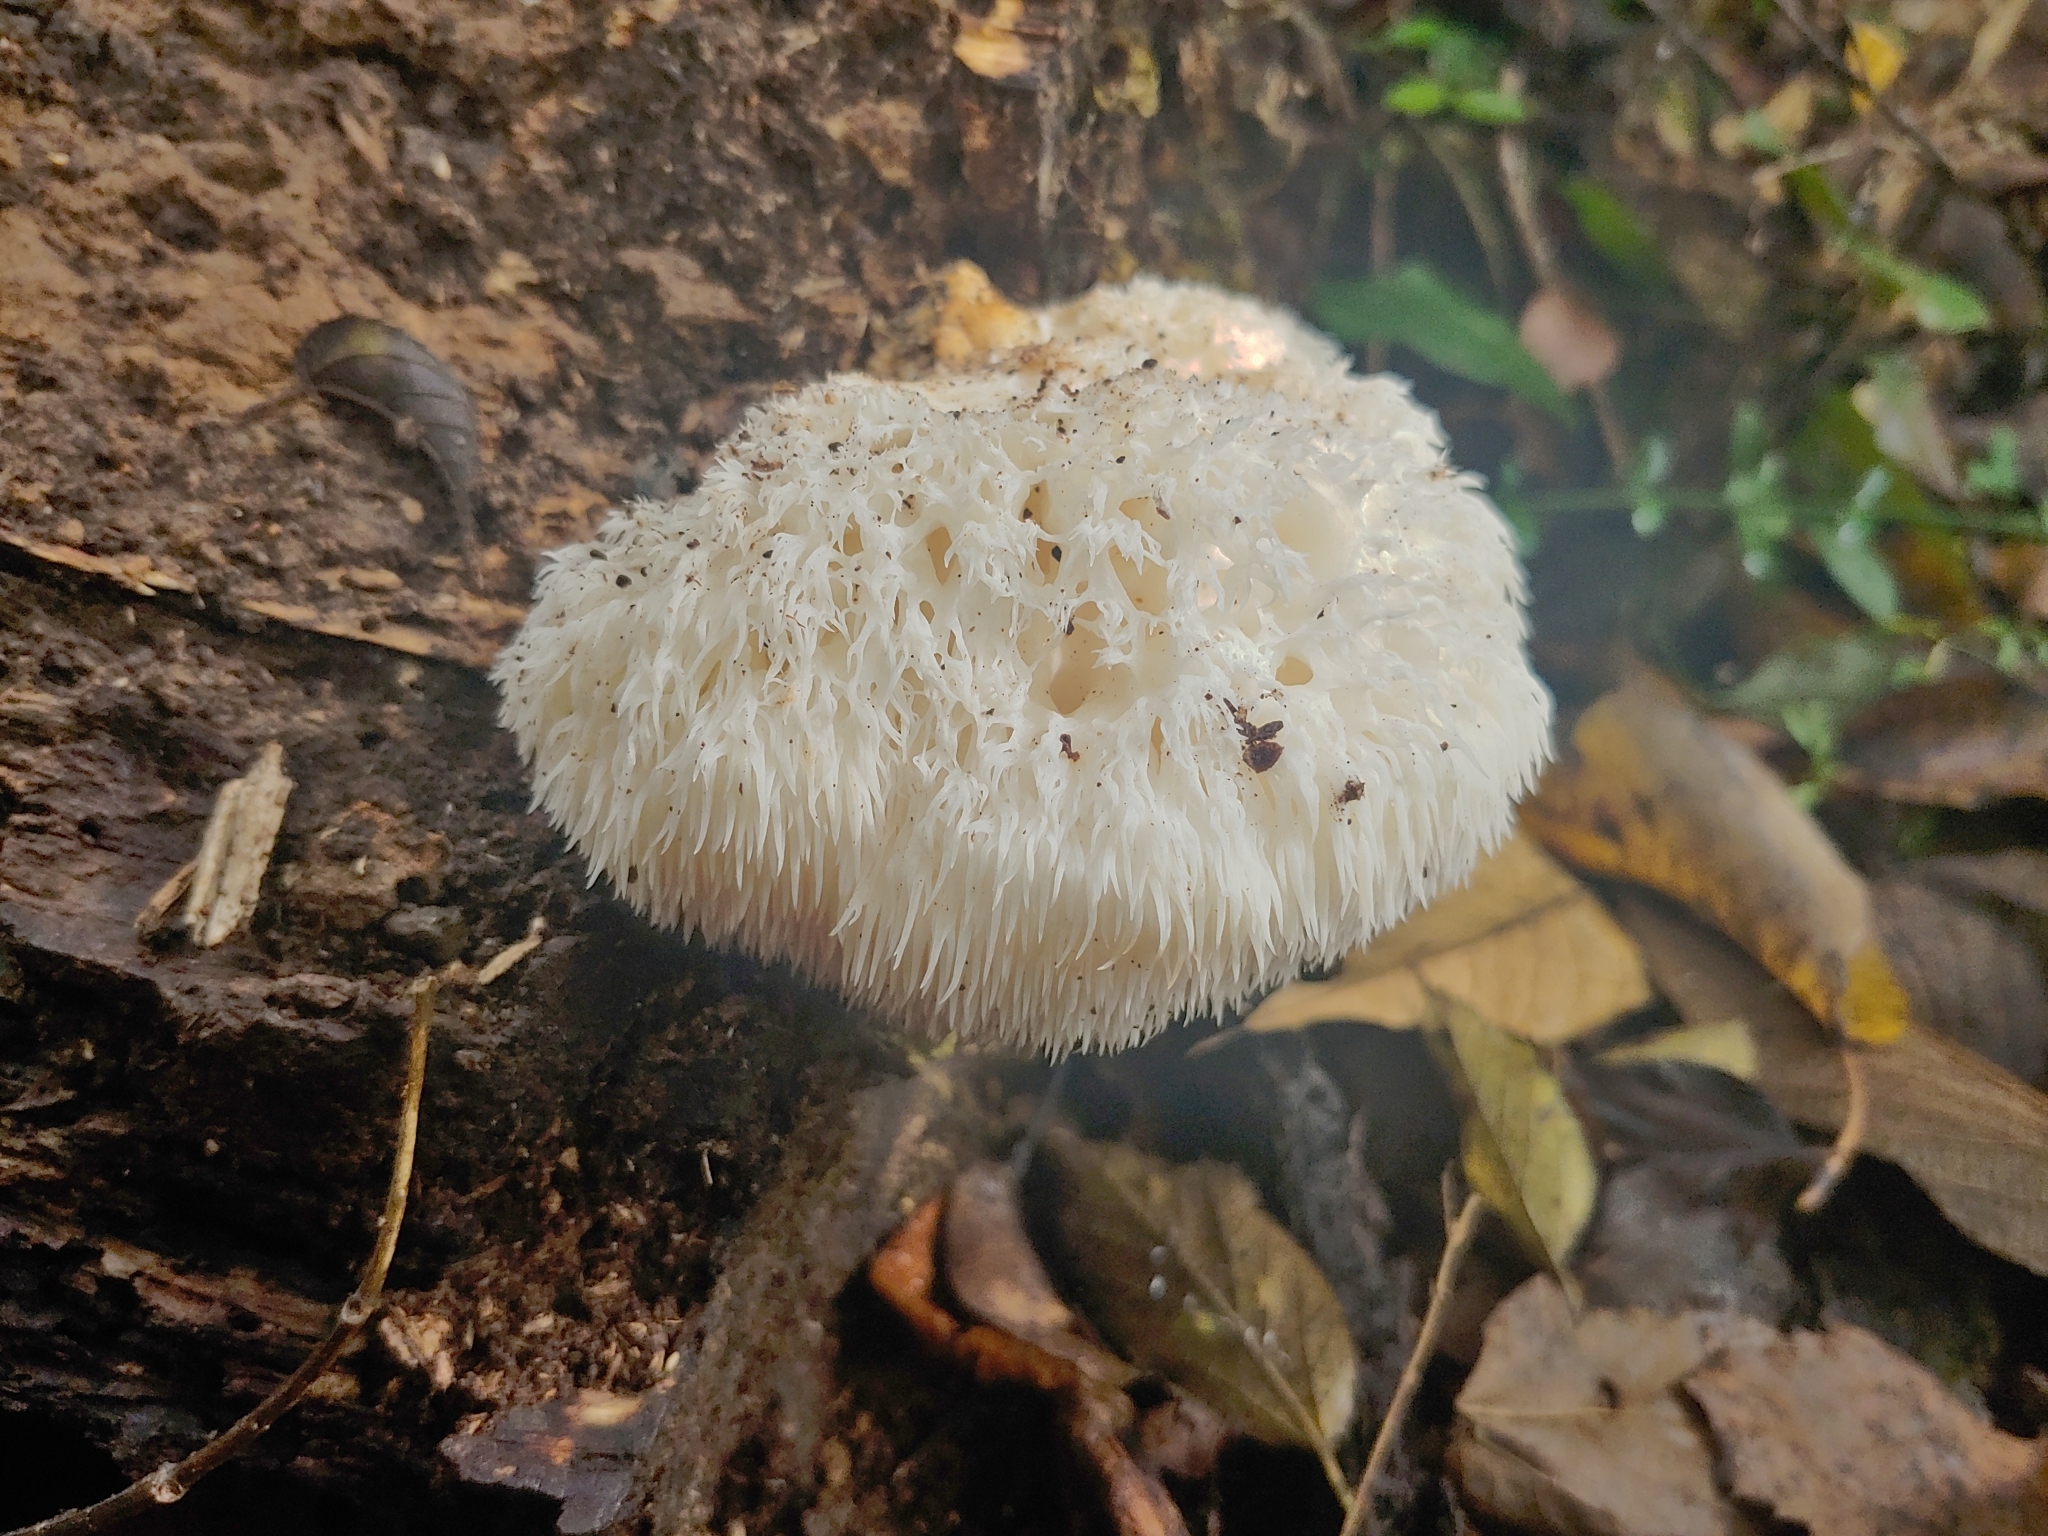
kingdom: Fungi
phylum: Basidiomycota
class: Agaricomycetes
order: Russulales
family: Hericiaceae
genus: Hericium
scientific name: Hericium erinaceus
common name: Bearded tooth
